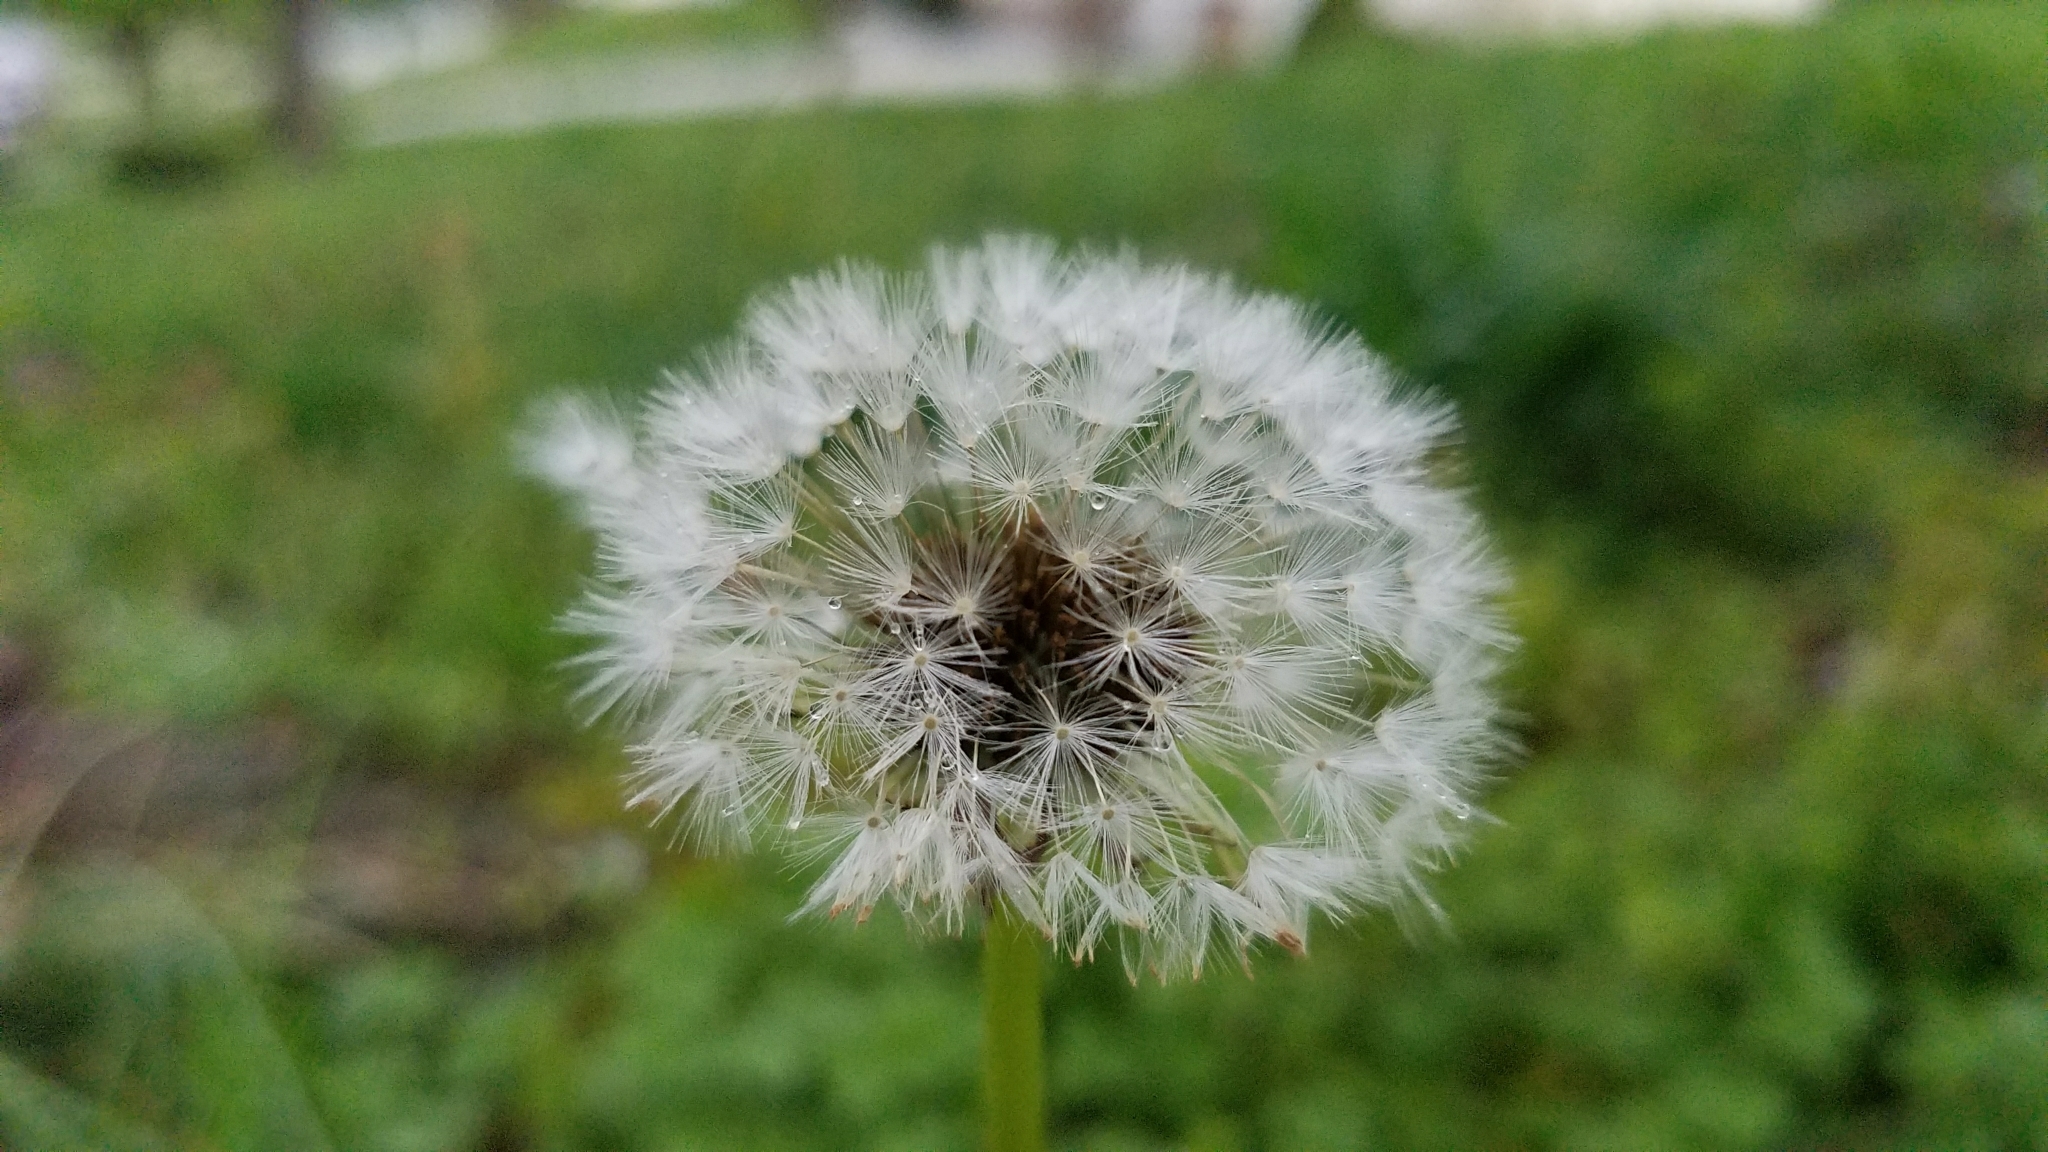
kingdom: Plantae
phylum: Tracheophyta
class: Magnoliopsida
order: Asterales
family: Asteraceae
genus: Taraxacum
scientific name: Taraxacum officinale
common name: Common dandelion
